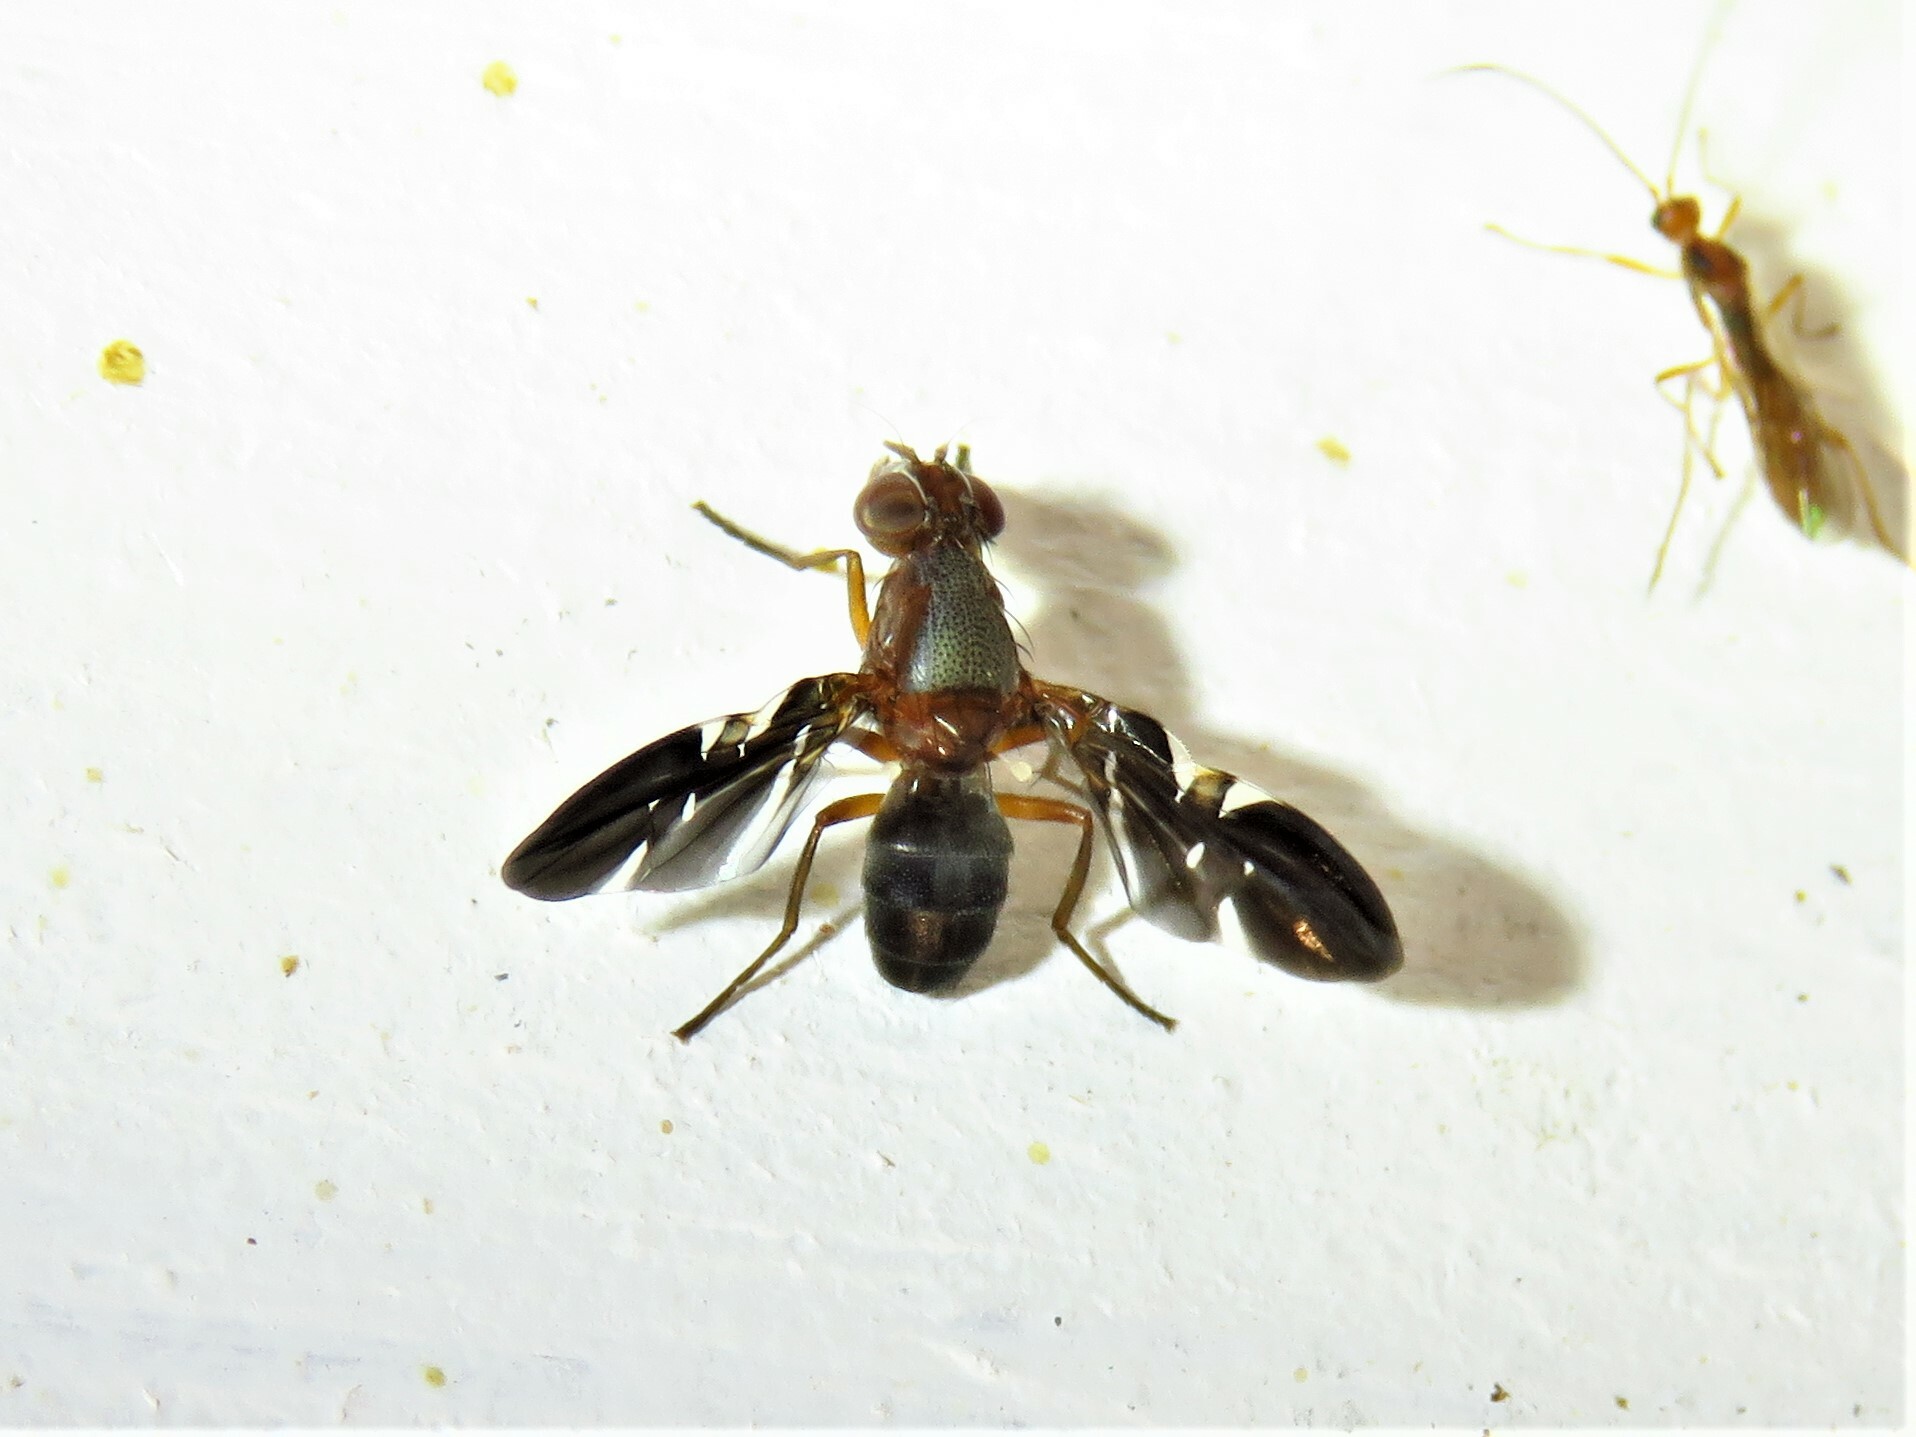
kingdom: Animalia
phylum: Arthropoda
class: Insecta
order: Diptera
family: Ulidiidae
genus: Delphinia
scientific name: Delphinia picta
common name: Common picture-winged fly
